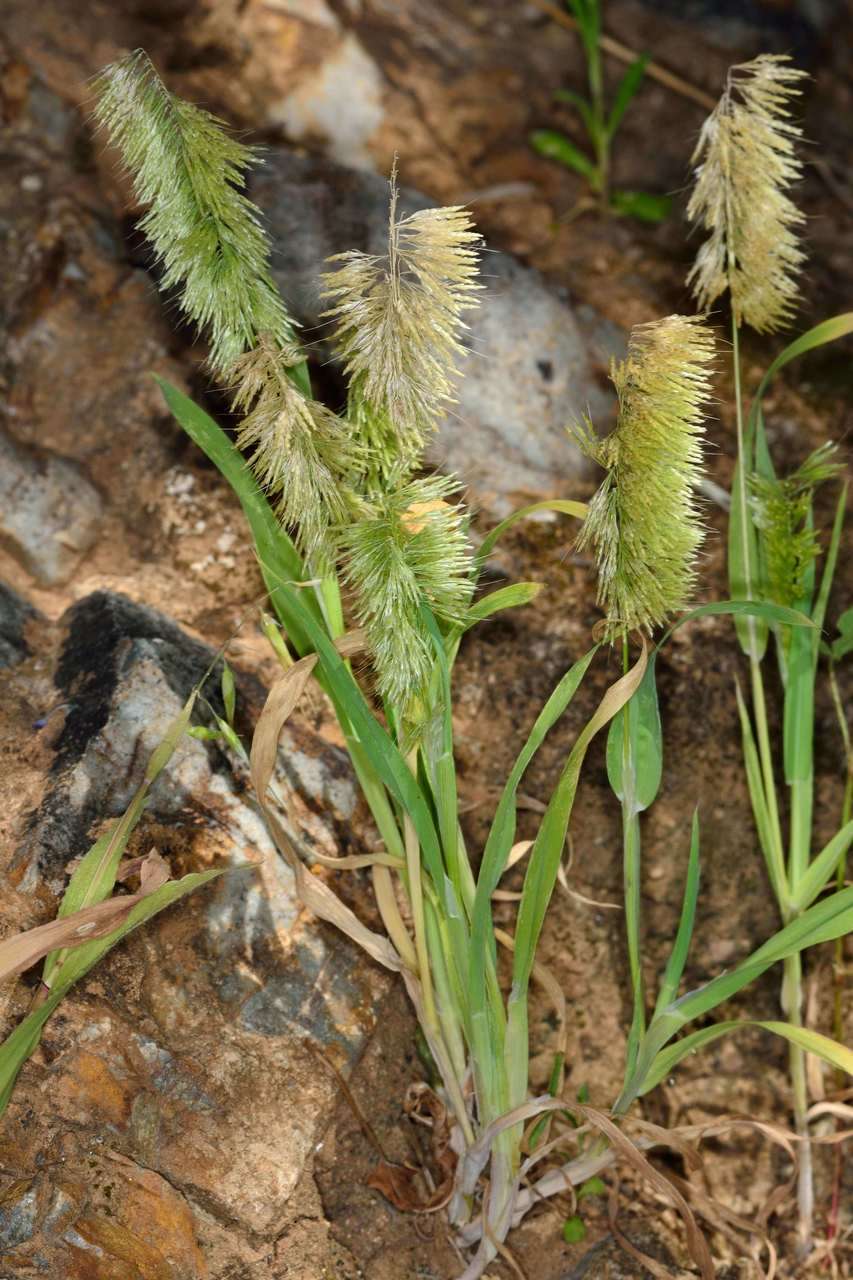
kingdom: Plantae
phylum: Tracheophyta
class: Liliopsida
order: Poales
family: Poaceae
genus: Lamarckia
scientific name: Lamarckia aurea
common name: Golden dog's-tail
